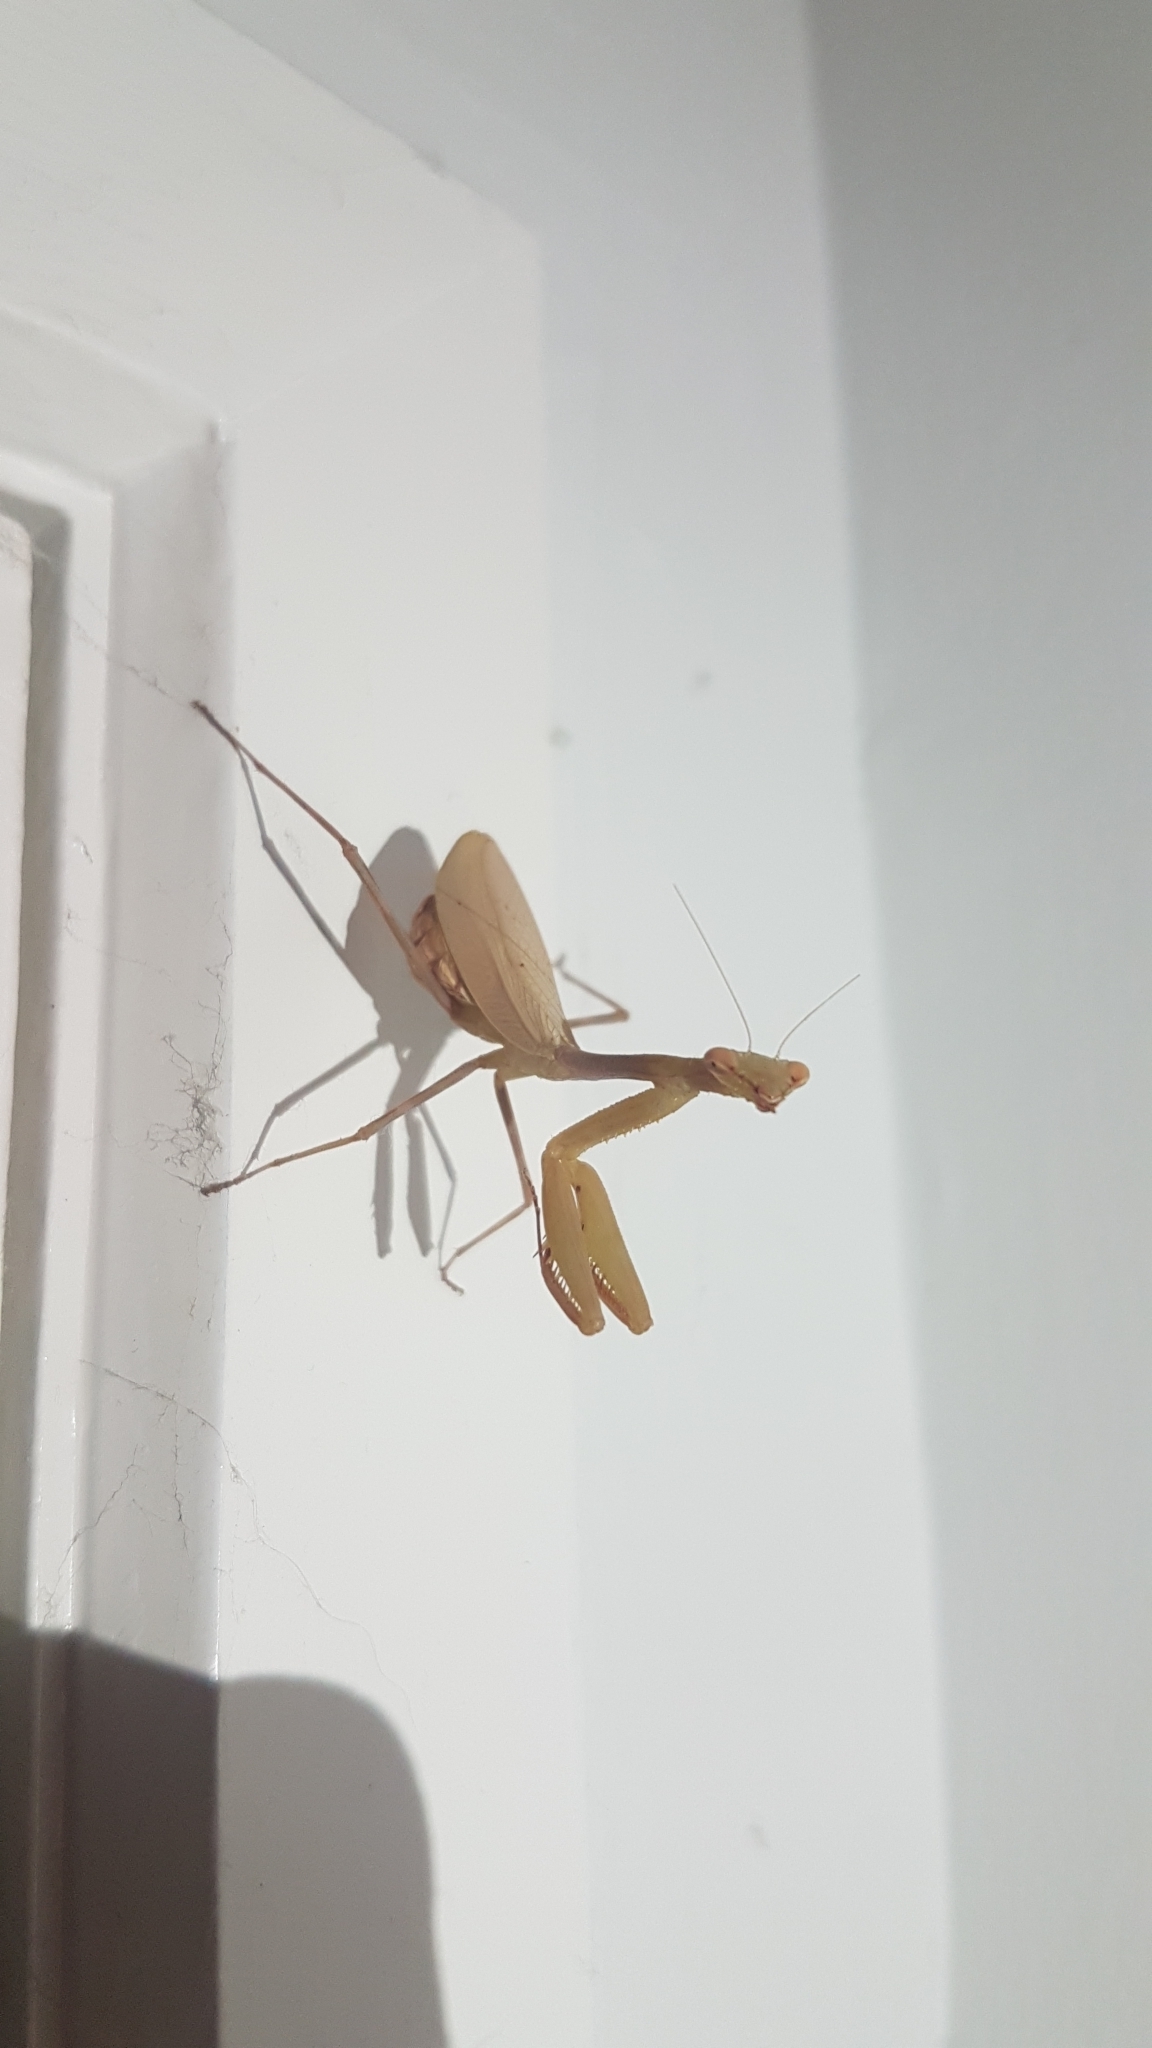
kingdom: Animalia
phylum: Arthropoda
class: Insecta
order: Mantodea
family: Miomantidae
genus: Miomantis
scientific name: Miomantis caffra
